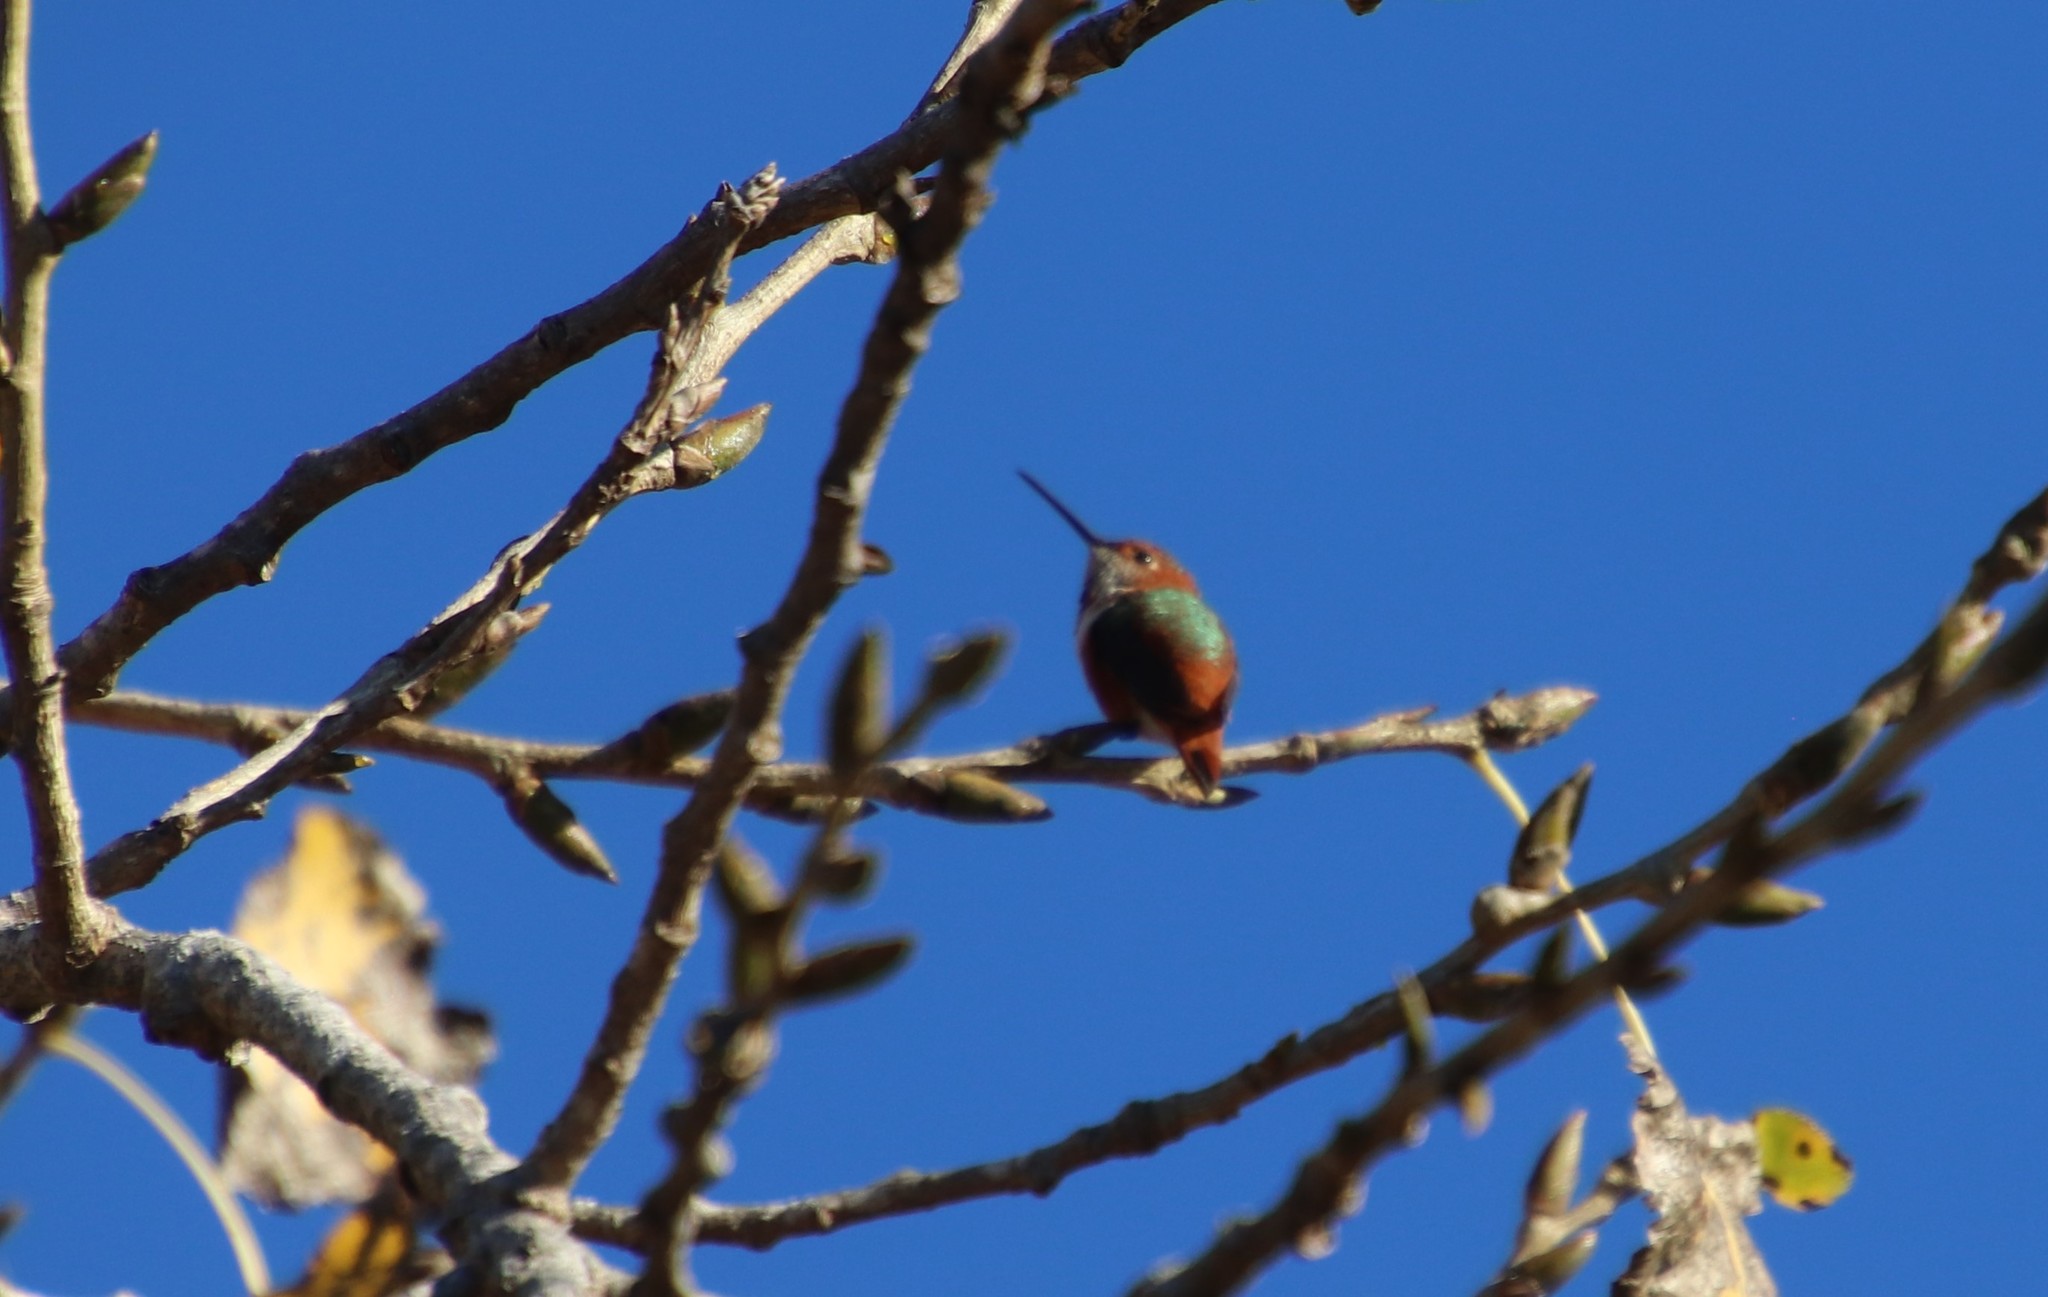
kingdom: Animalia
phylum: Chordata
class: Aves
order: Apodiformes
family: Trochilidae
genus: Selasphorus
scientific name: Selasphorus sasin
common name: Allen's hummingbird
